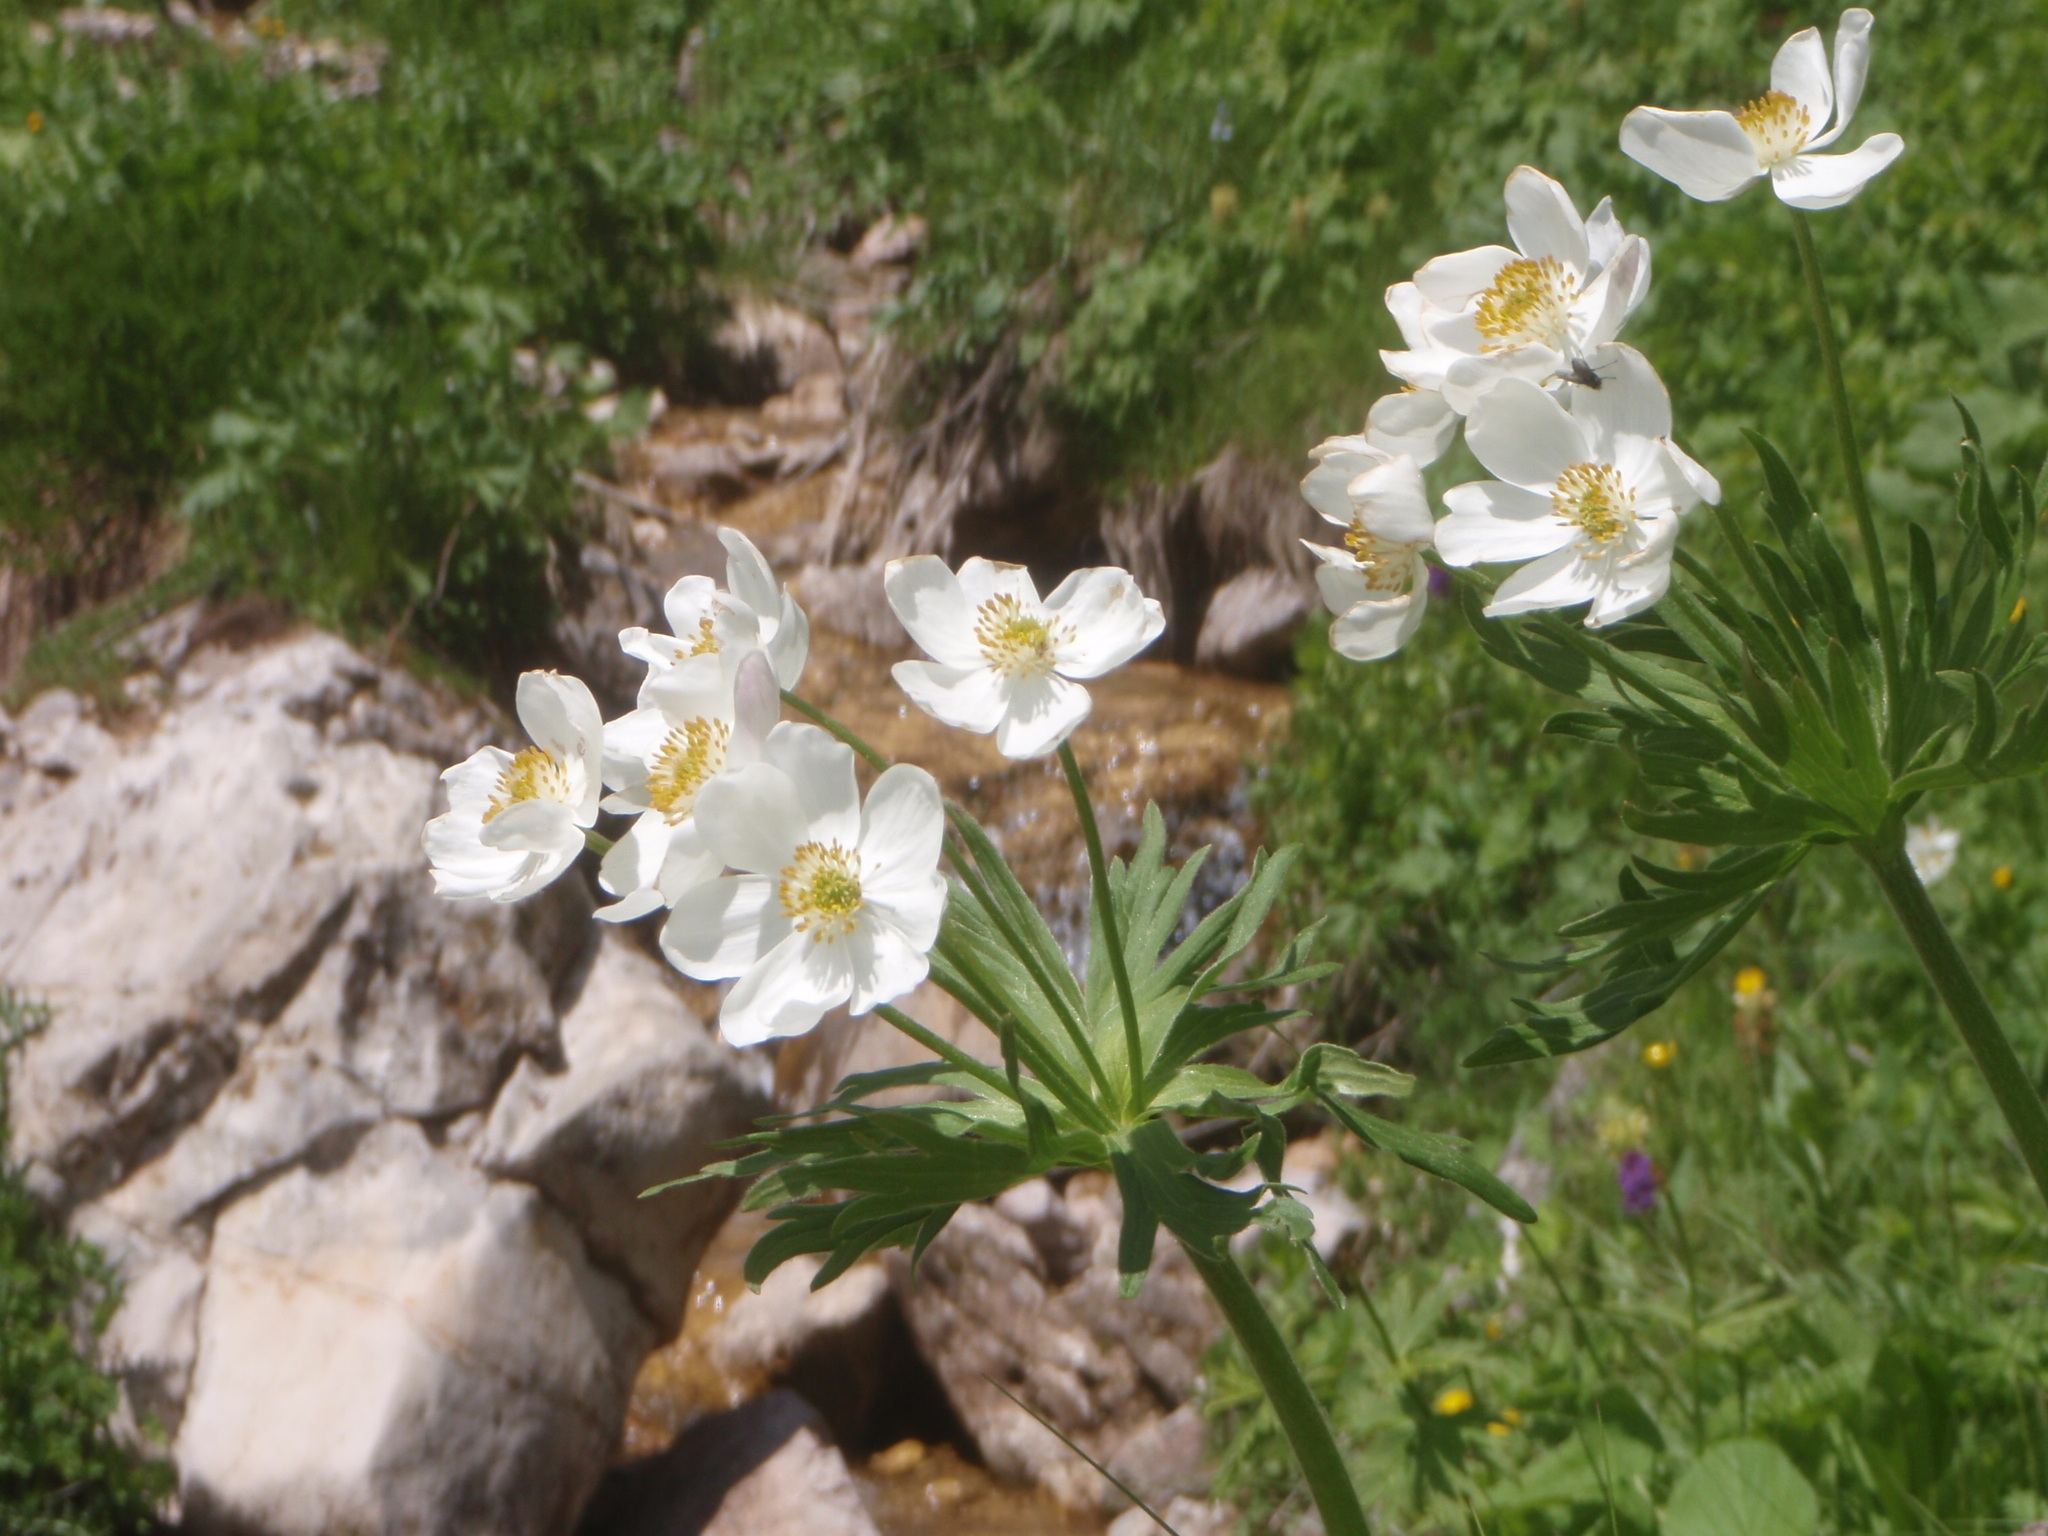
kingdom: Plantae
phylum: Tracheophyta
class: Magnoliopsida
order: Ranunculales
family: Ranunculaceae
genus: Anemonastrum
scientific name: Anemonastrum narcissiflorum
